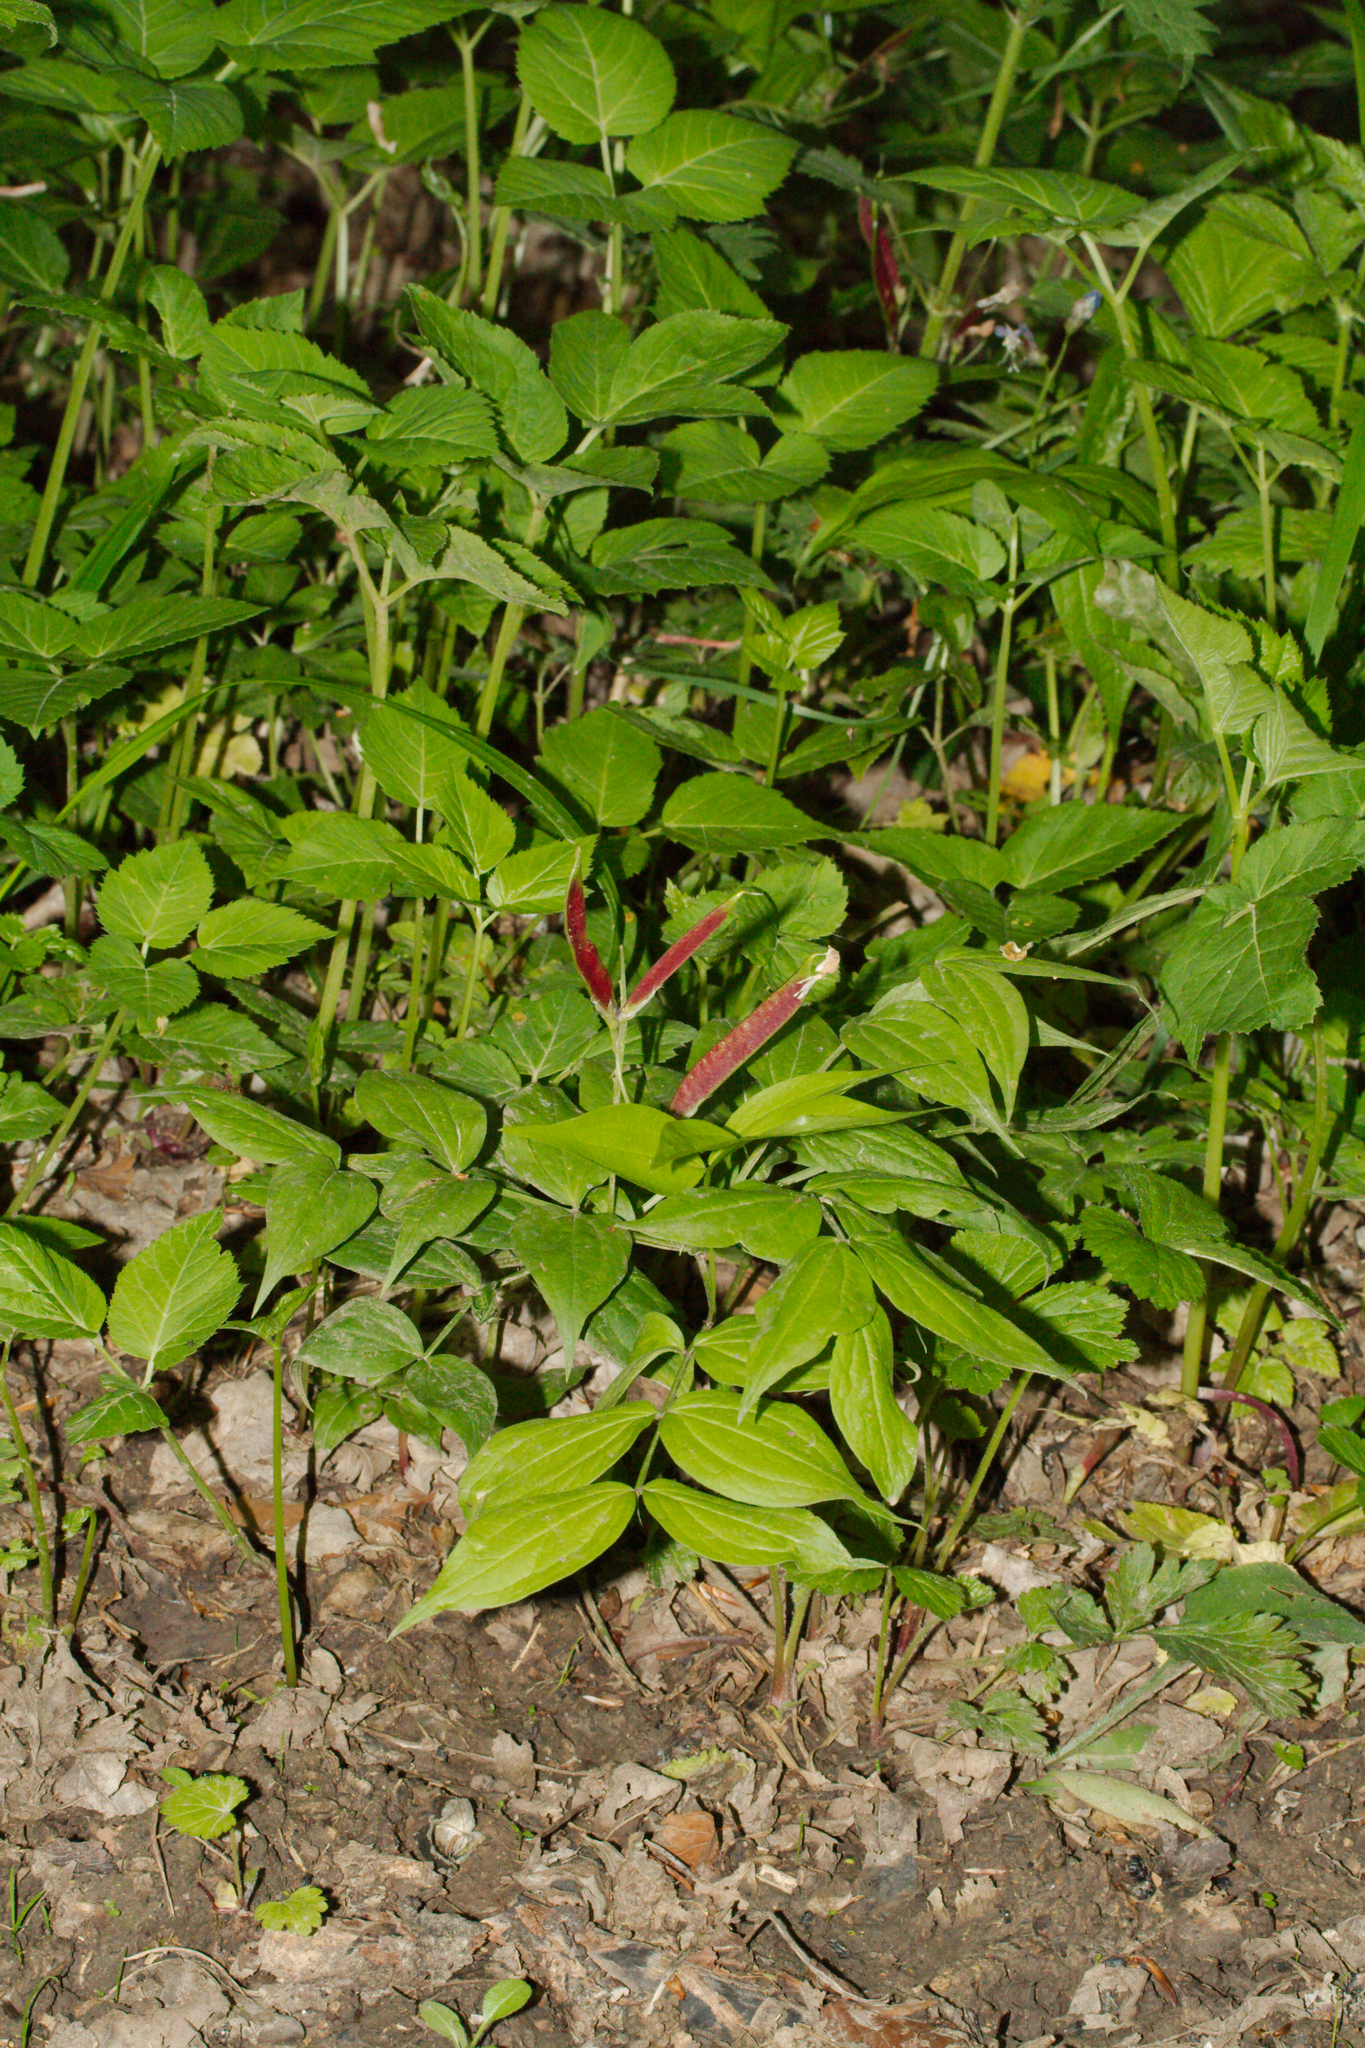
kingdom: Plantae
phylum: Tracheophyta
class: Magnoliopsida
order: Fabales
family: Fabaceae
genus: Lathyrus
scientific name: Lathyrus vernus
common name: Spring pea
